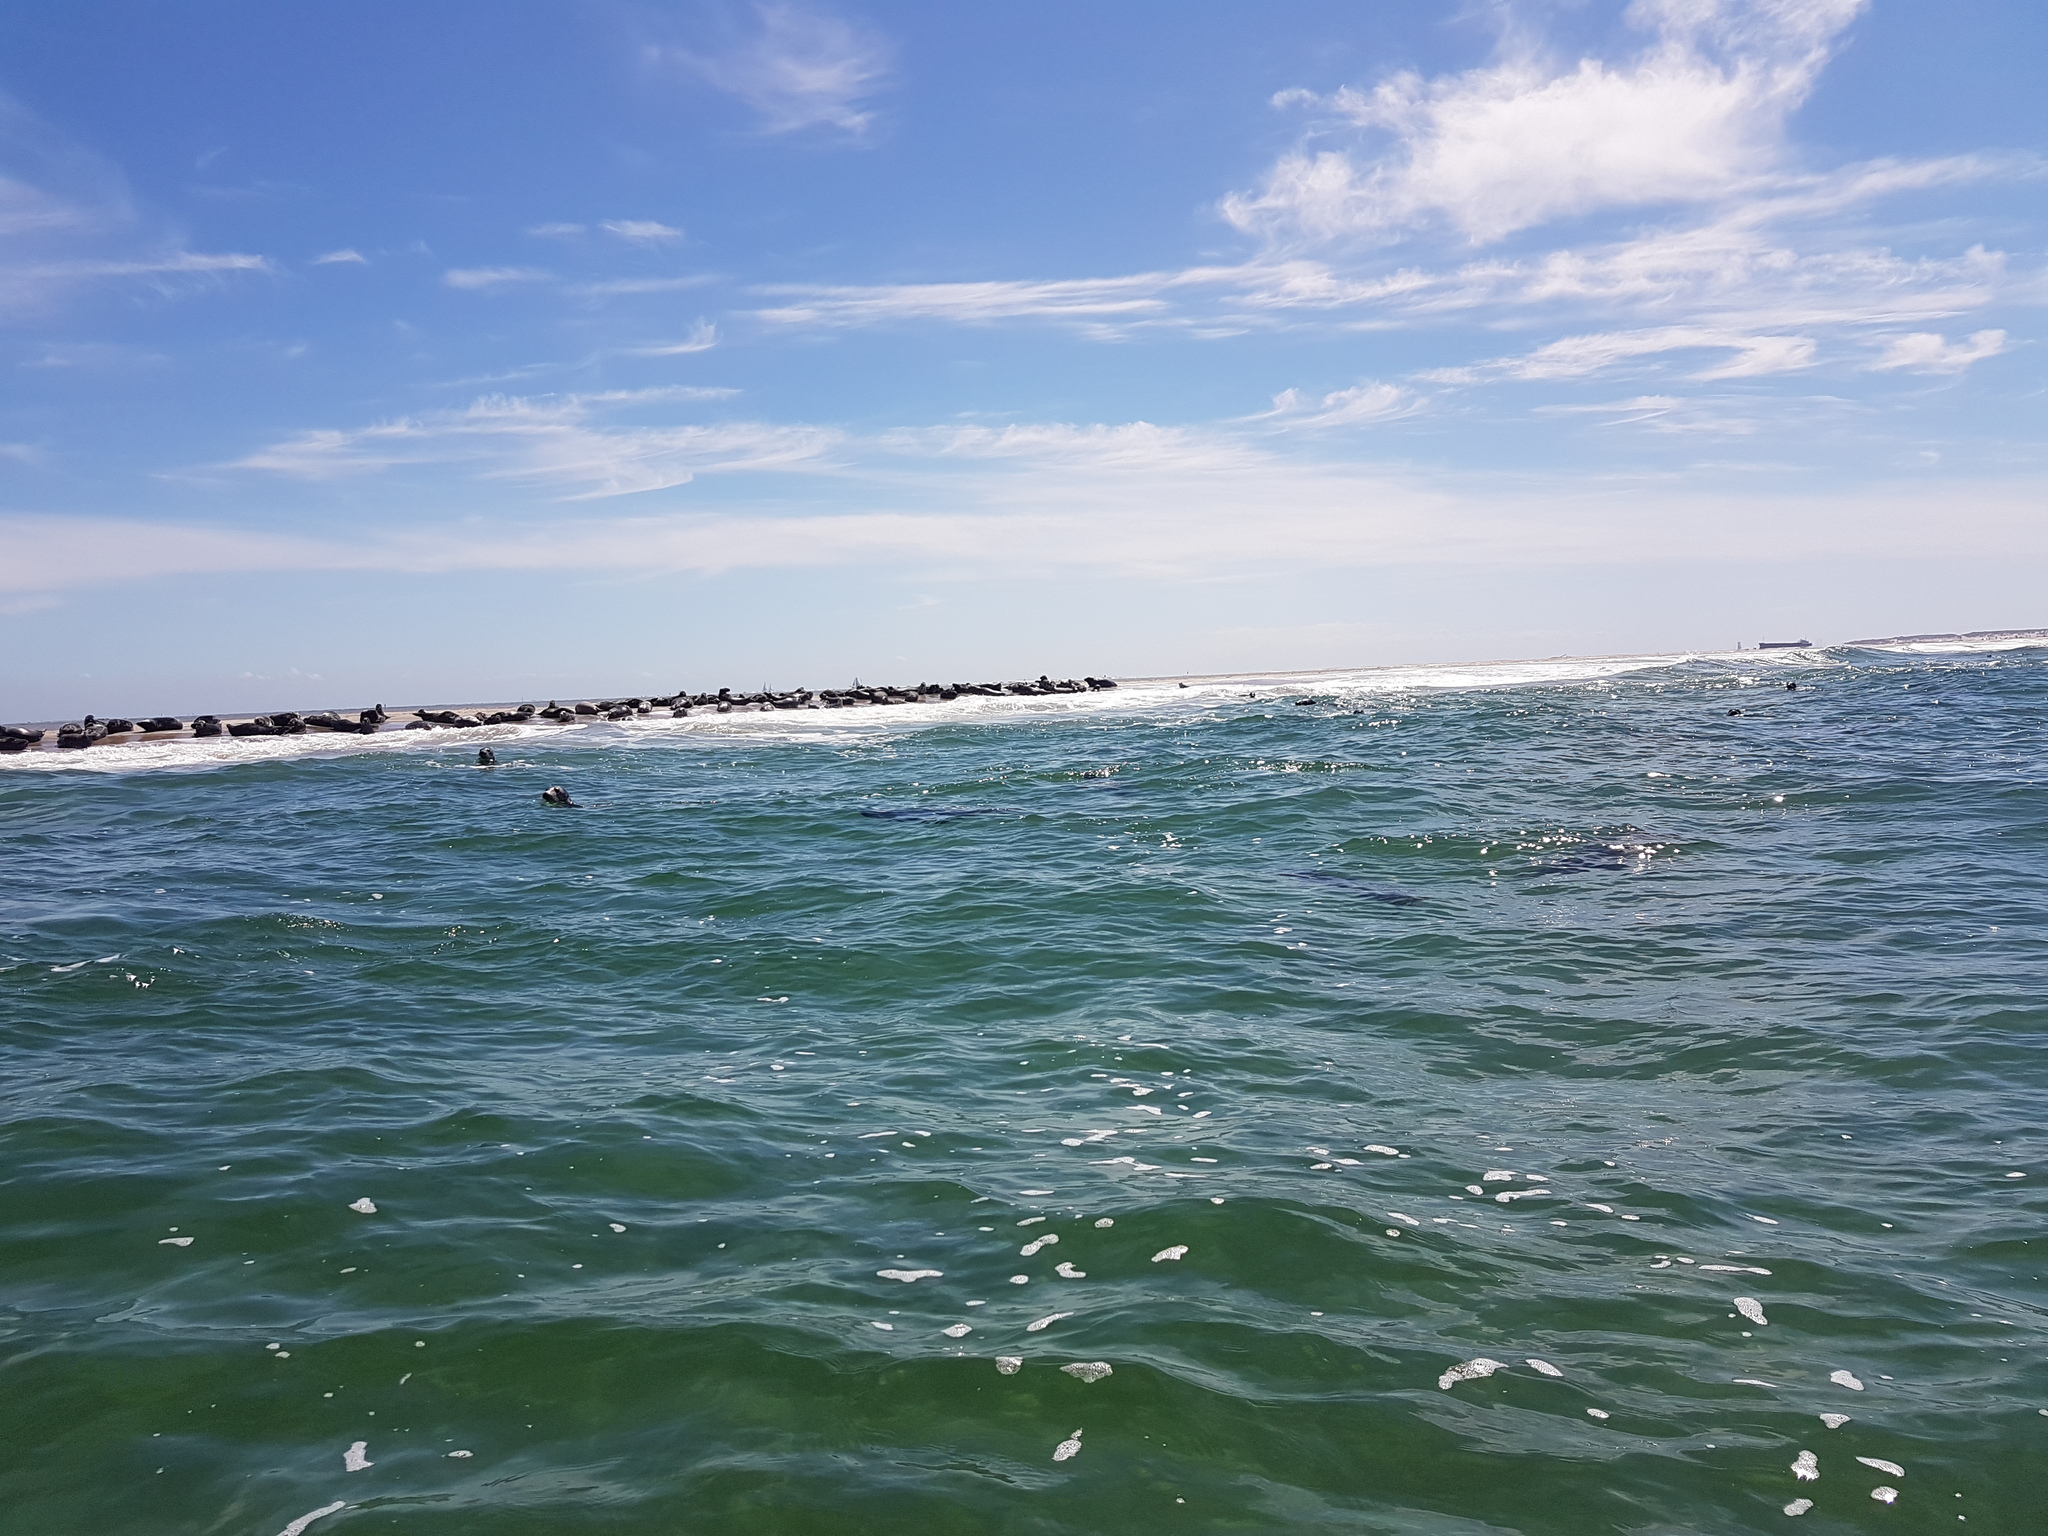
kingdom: Animalia
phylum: Chordata
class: Mammalia
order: Carnivora
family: Phocidae
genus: Halichoerus
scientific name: Halichoerus grypus
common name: Grey seal
